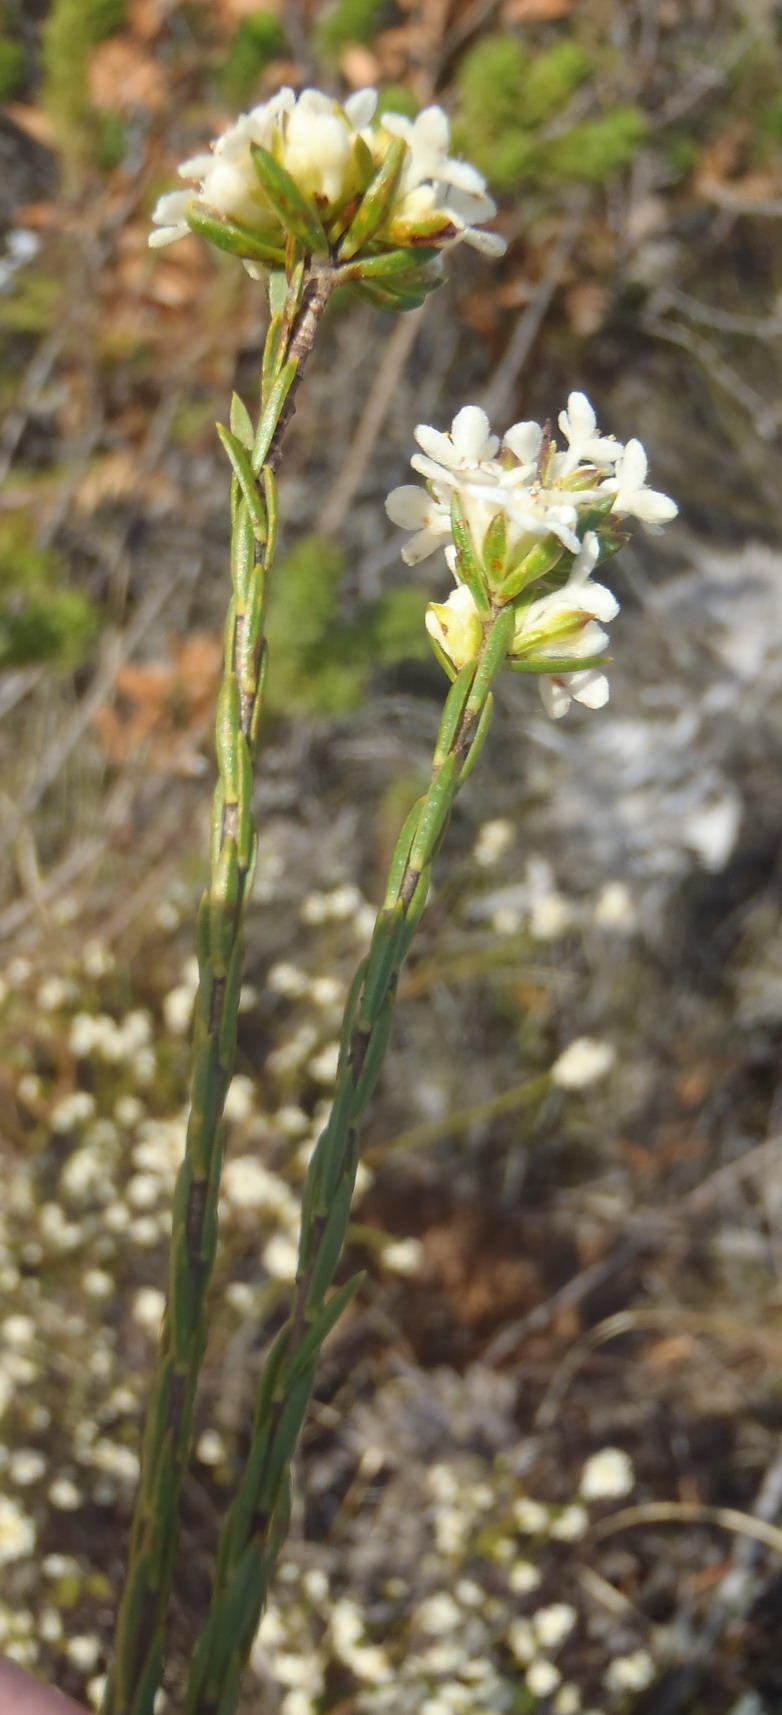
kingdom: Plantae
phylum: Tracheophyta
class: Magnoliopsida
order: Malvales
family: Thymelaeaceae
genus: Lachnaea
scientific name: Lachnaea diosmoides
